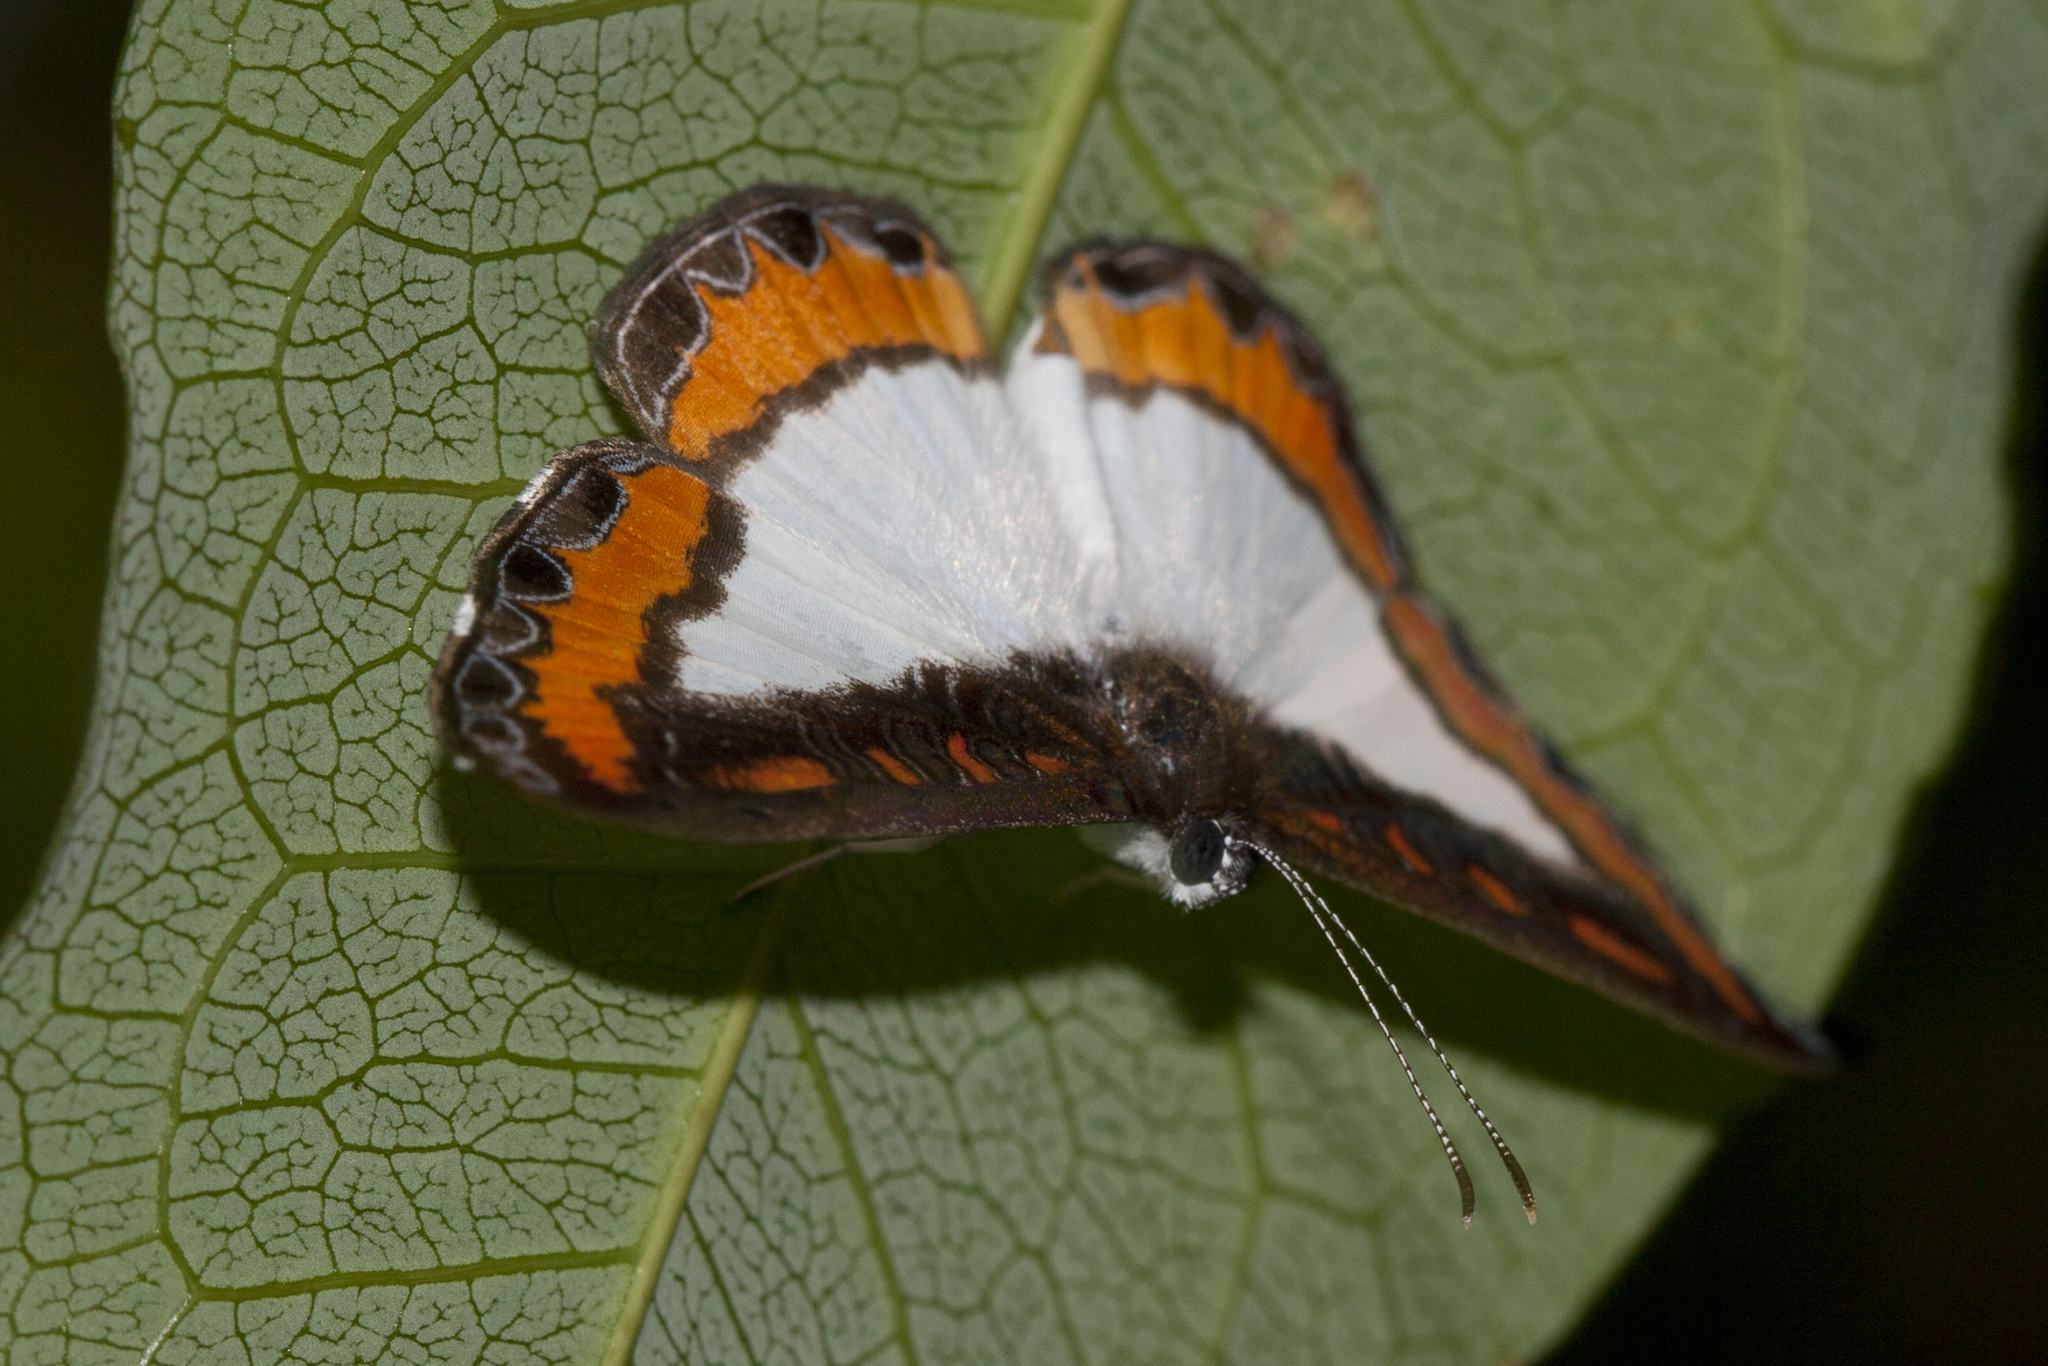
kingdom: Animalia
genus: Nymphidium
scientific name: Nymphidium caricae
